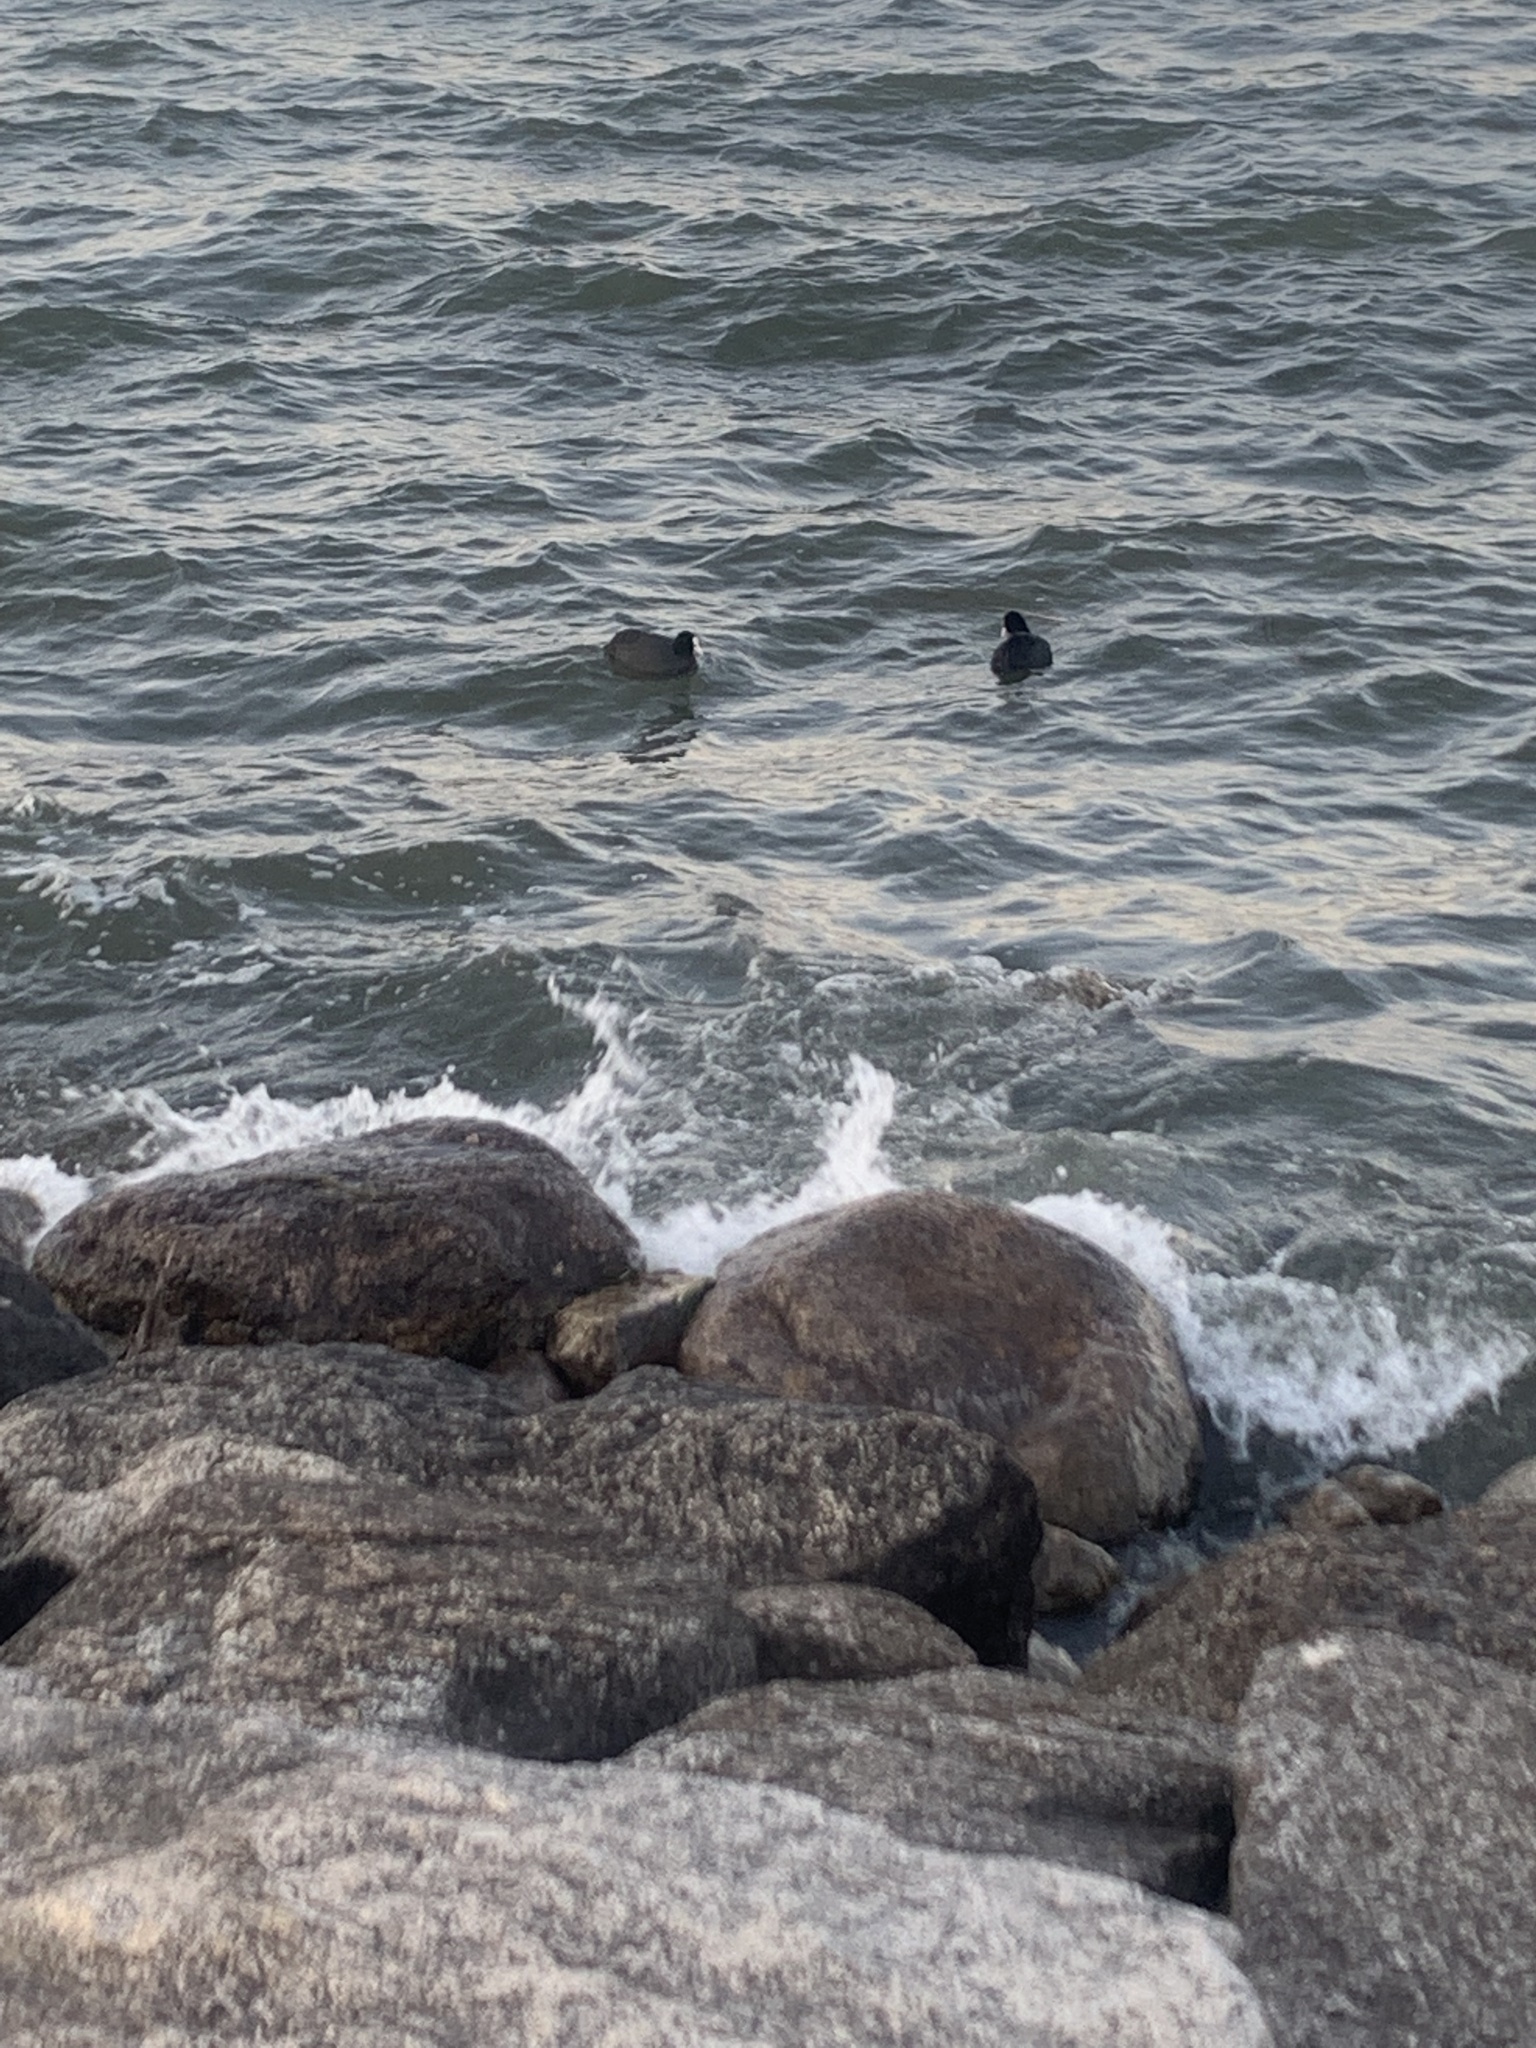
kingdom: Animalia
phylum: Chordata
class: Aves
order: Gruiformes
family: Rallidae
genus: Fulica
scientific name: Fulica atra
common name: Eurasian coot
